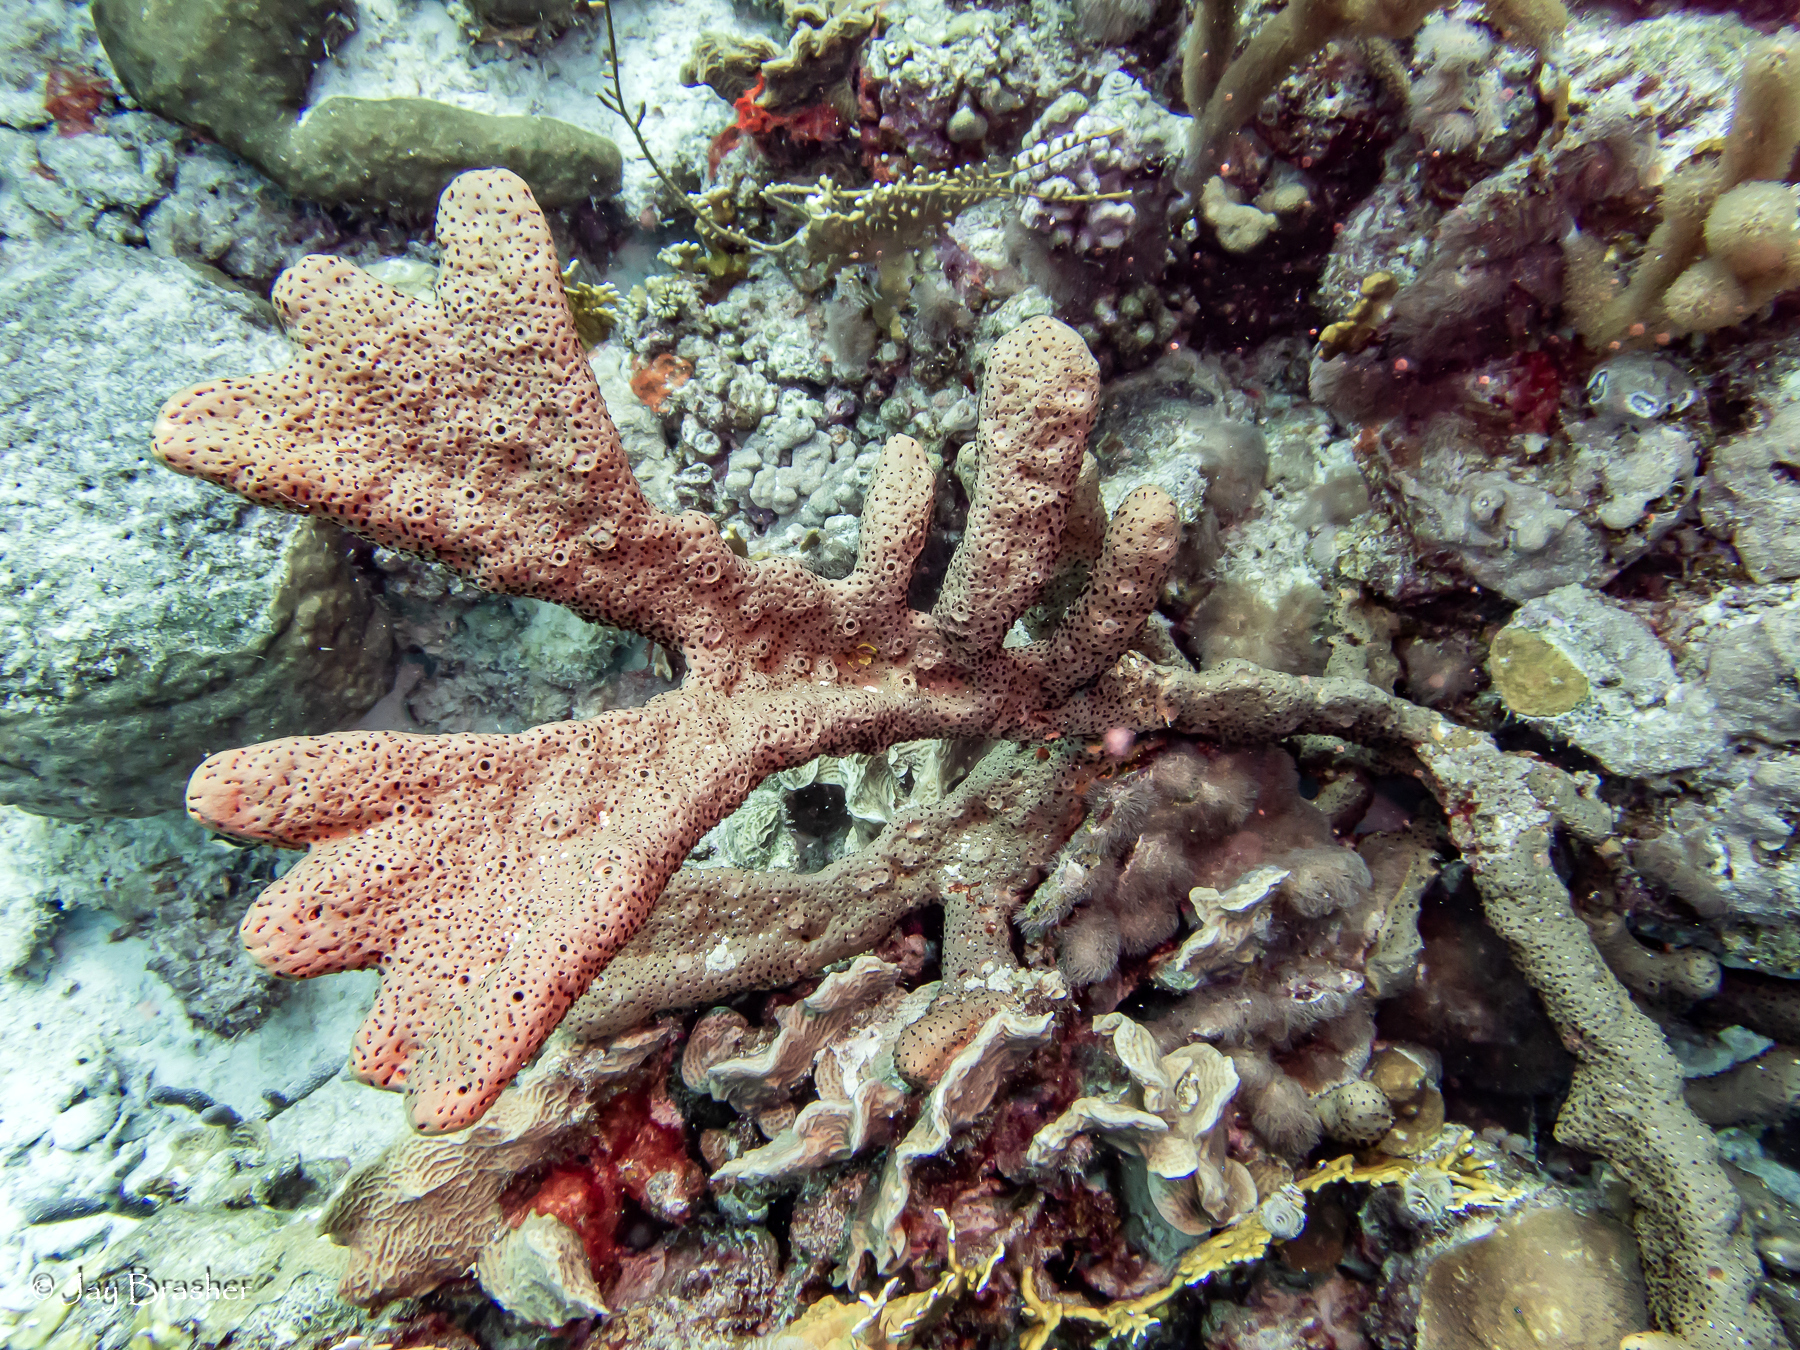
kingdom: Animalia
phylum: Porifera
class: Demospongiae
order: Agelasida
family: Agelasidae
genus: Agelas
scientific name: Agelas conifera
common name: Brown tube sponge
